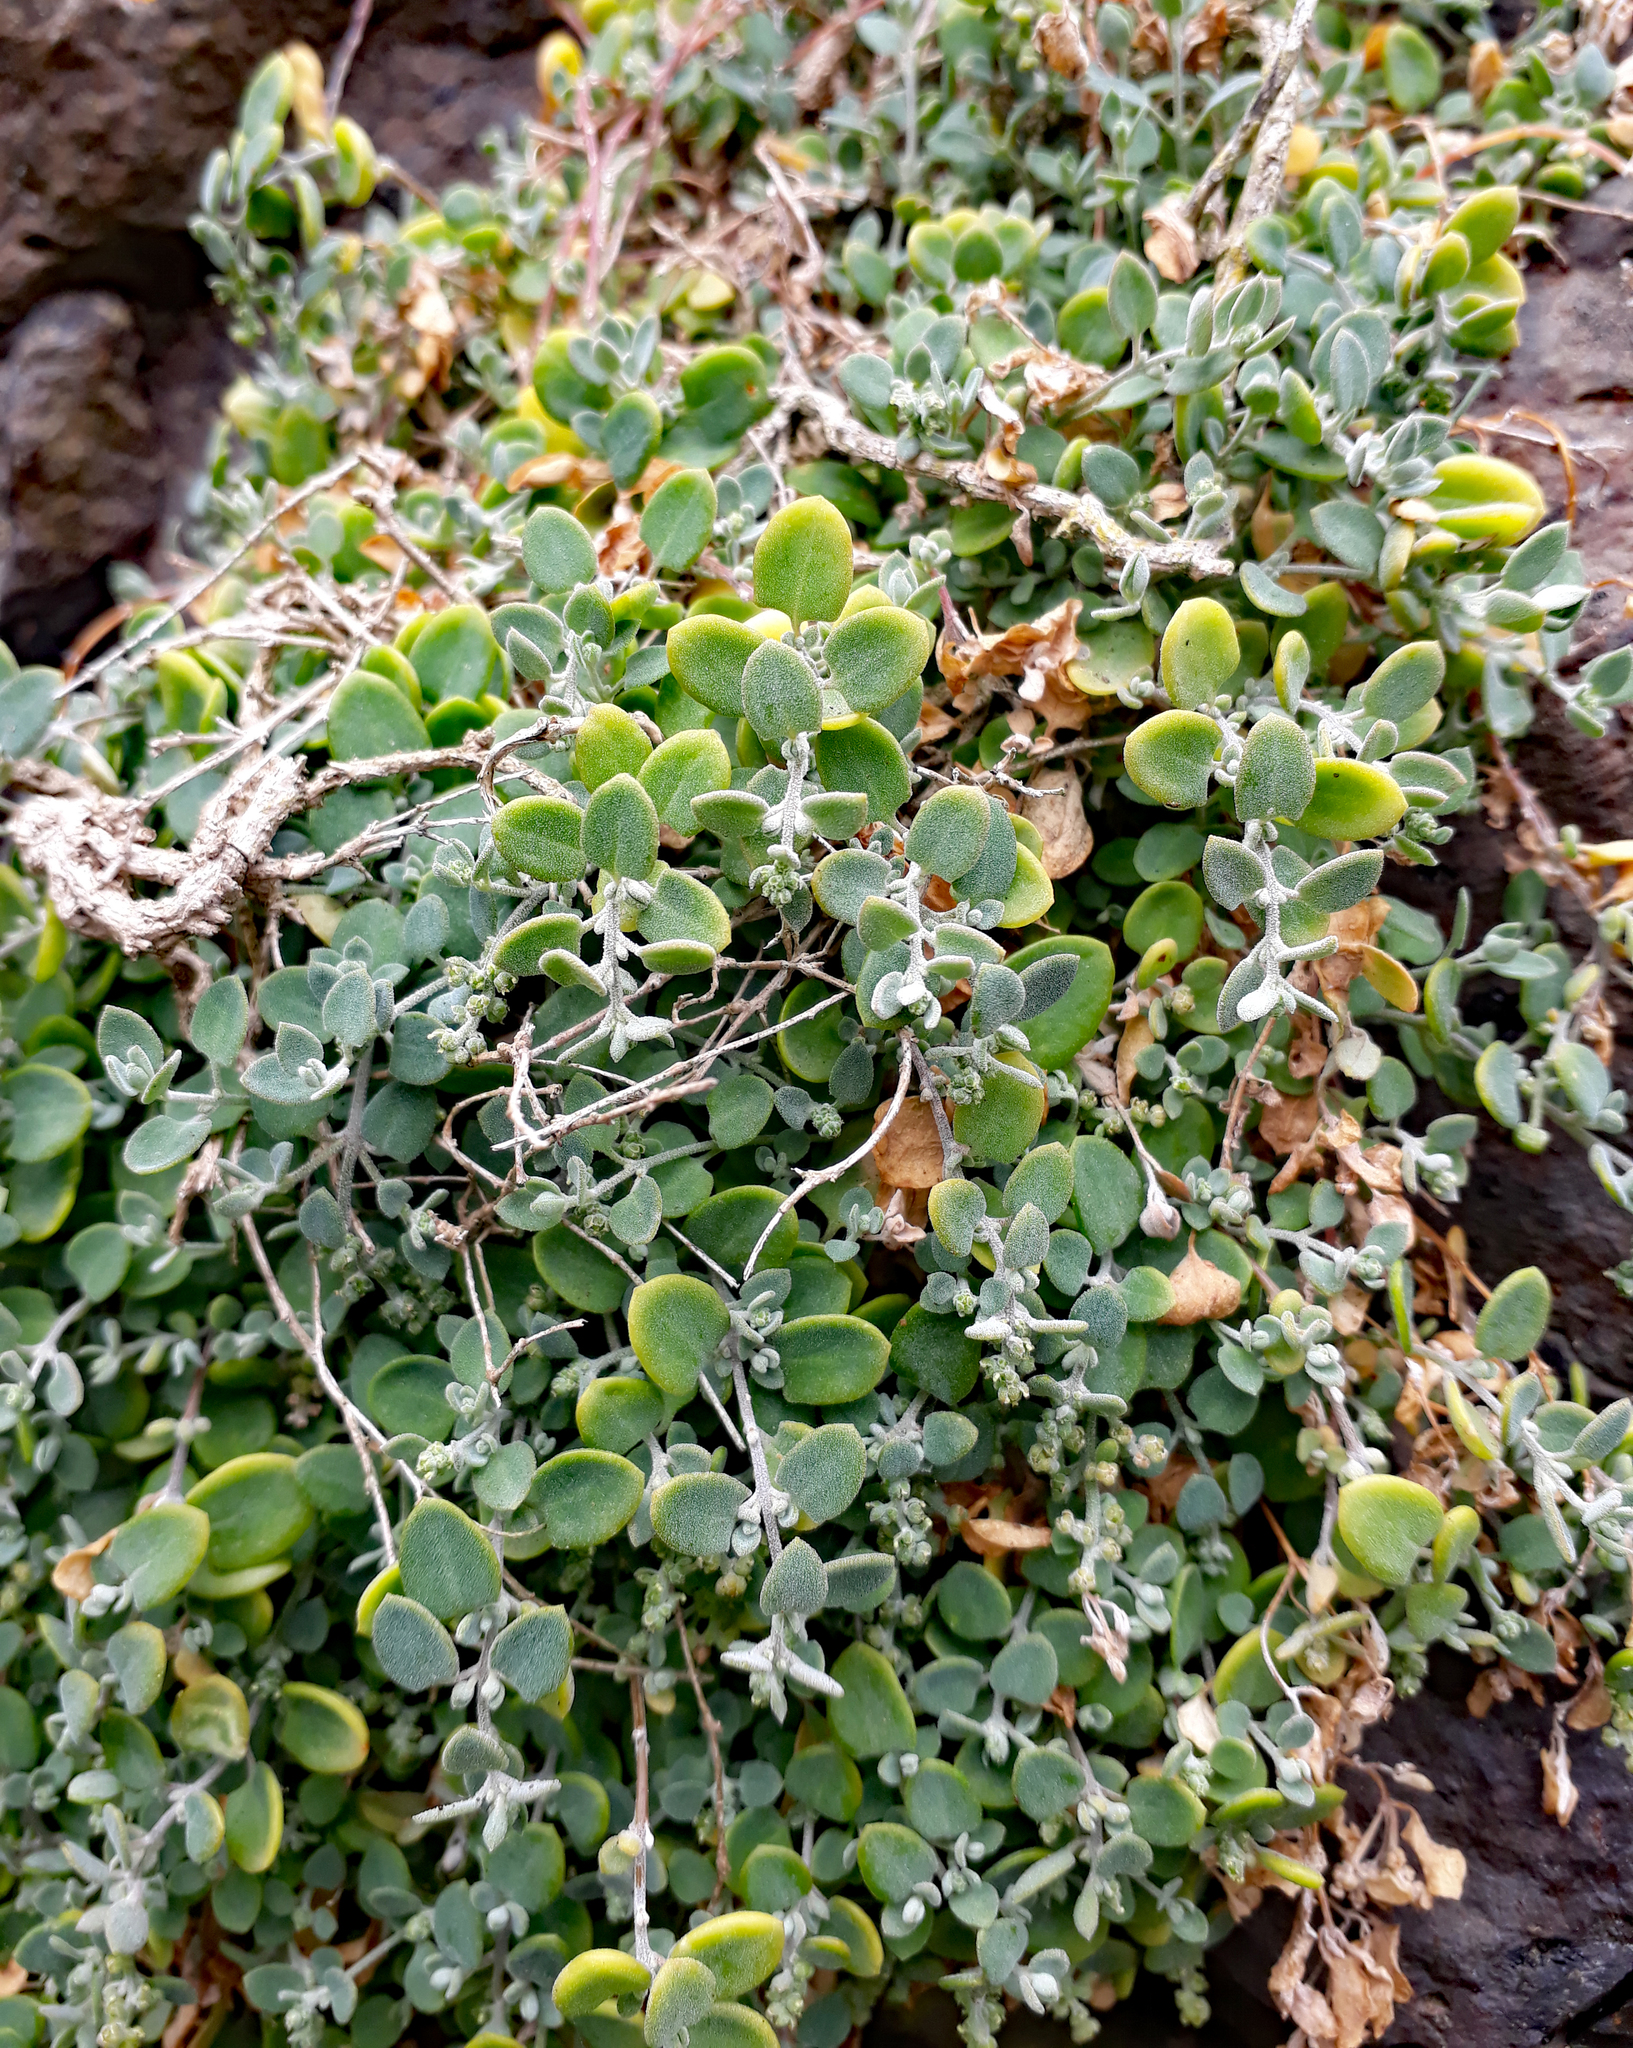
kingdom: Plantae
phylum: Tracheophyta
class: Magnoliopsida
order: Caryophyllales
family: Amaranthaceae
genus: Chenopodium
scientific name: Chenopodium triandrum
